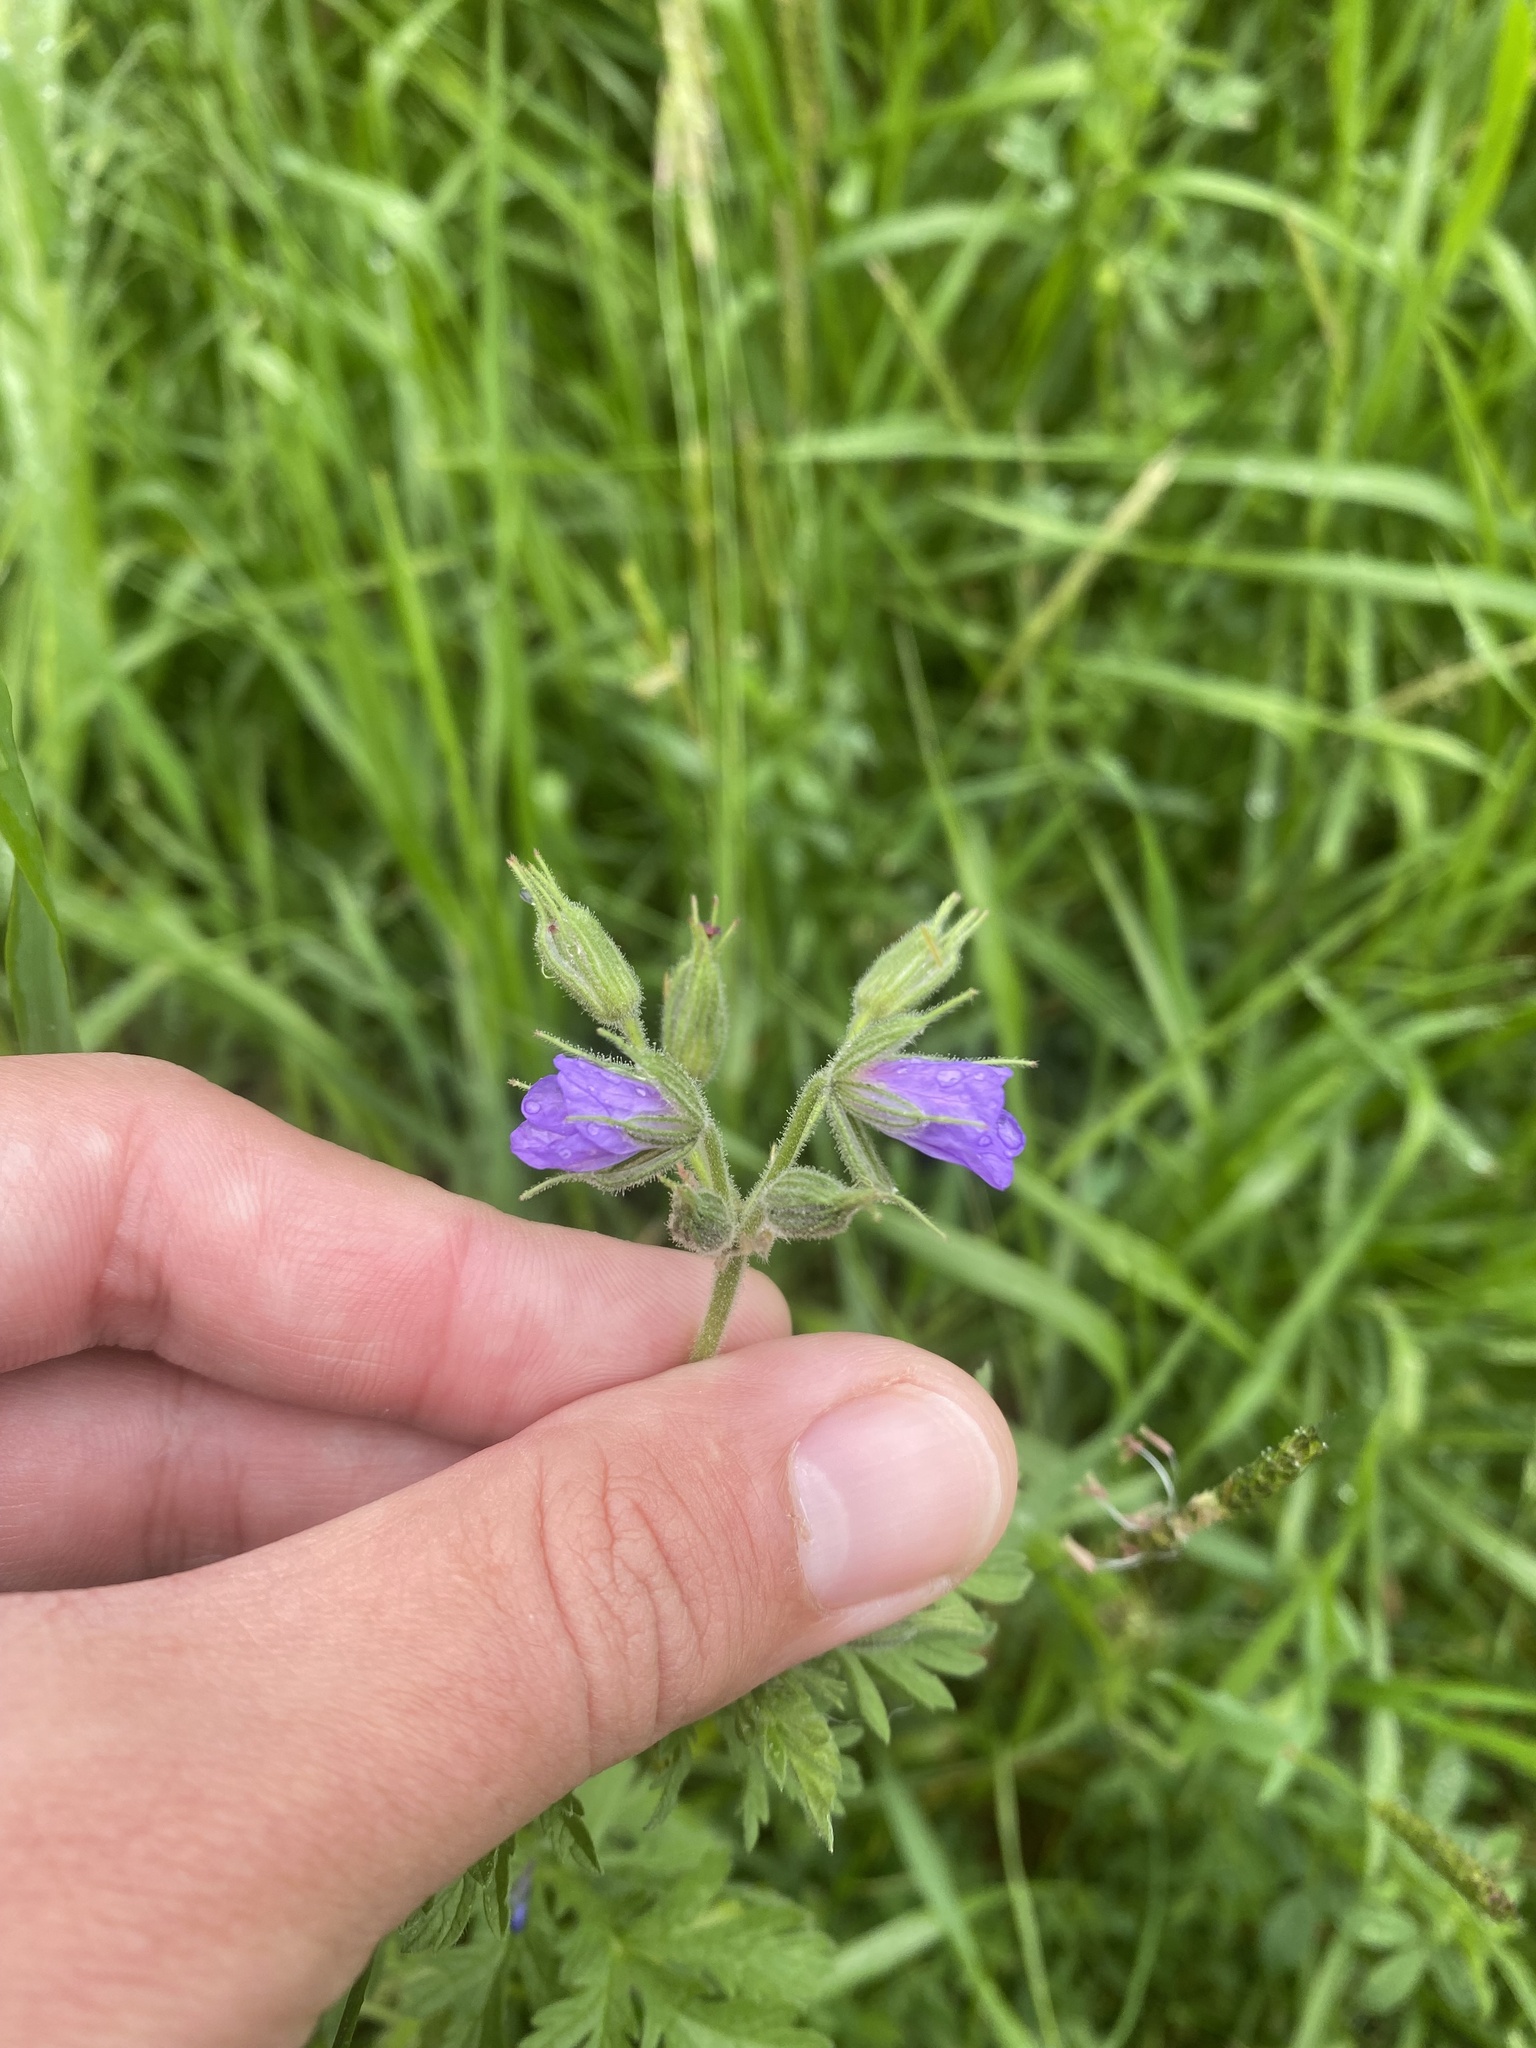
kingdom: Plantae
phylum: Tracheophyta
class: Magnoliopsida
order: Geraniales
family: Geraniaceae
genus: Erodium
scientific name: Erodium ciconium
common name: Common stork's bill
